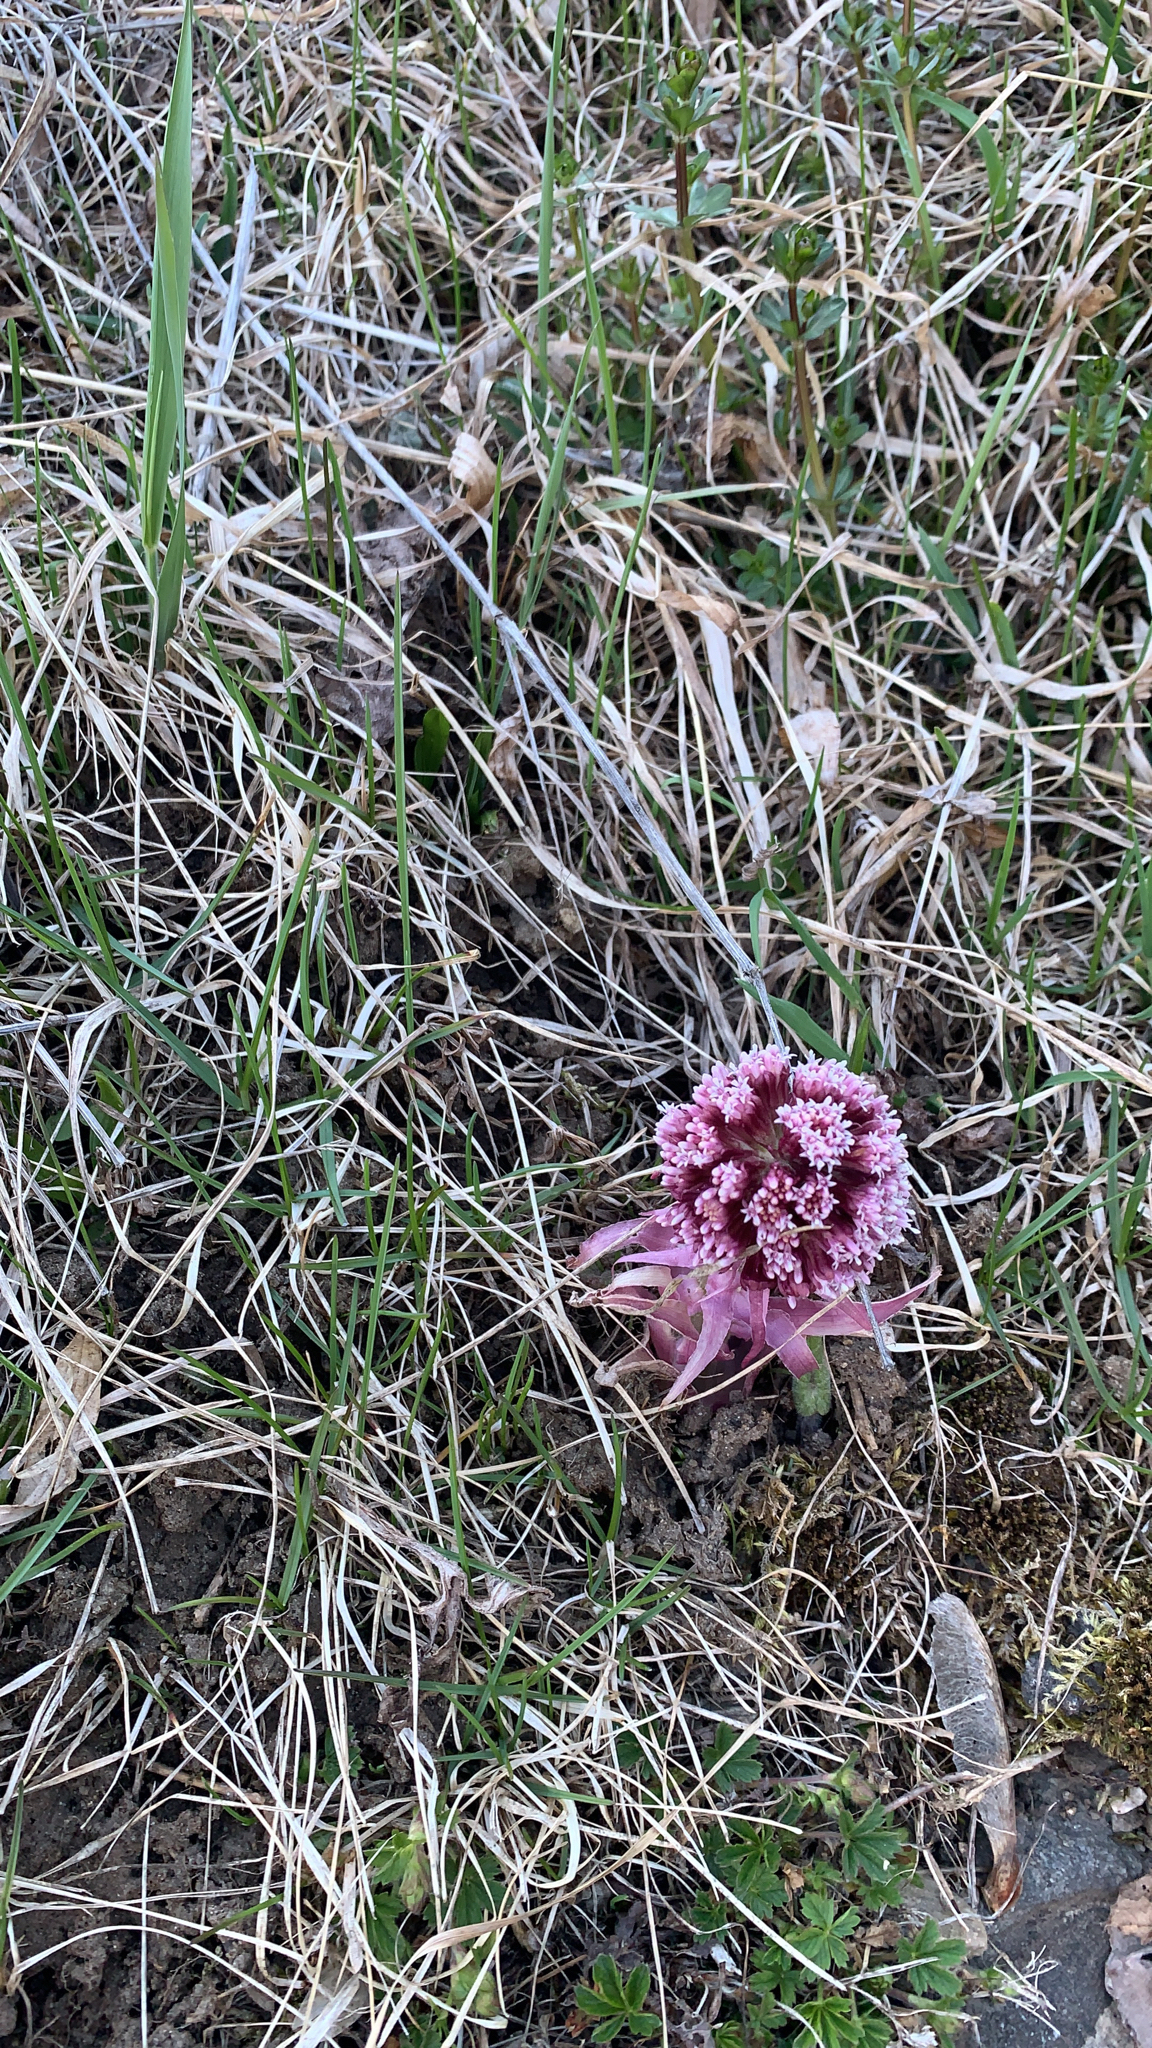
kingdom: Plantae
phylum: Tracheophyta
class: Magnoliopsida
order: Asterales
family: Asteraceae
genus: Petasites
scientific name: Petasites hybridus
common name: Butterbur
